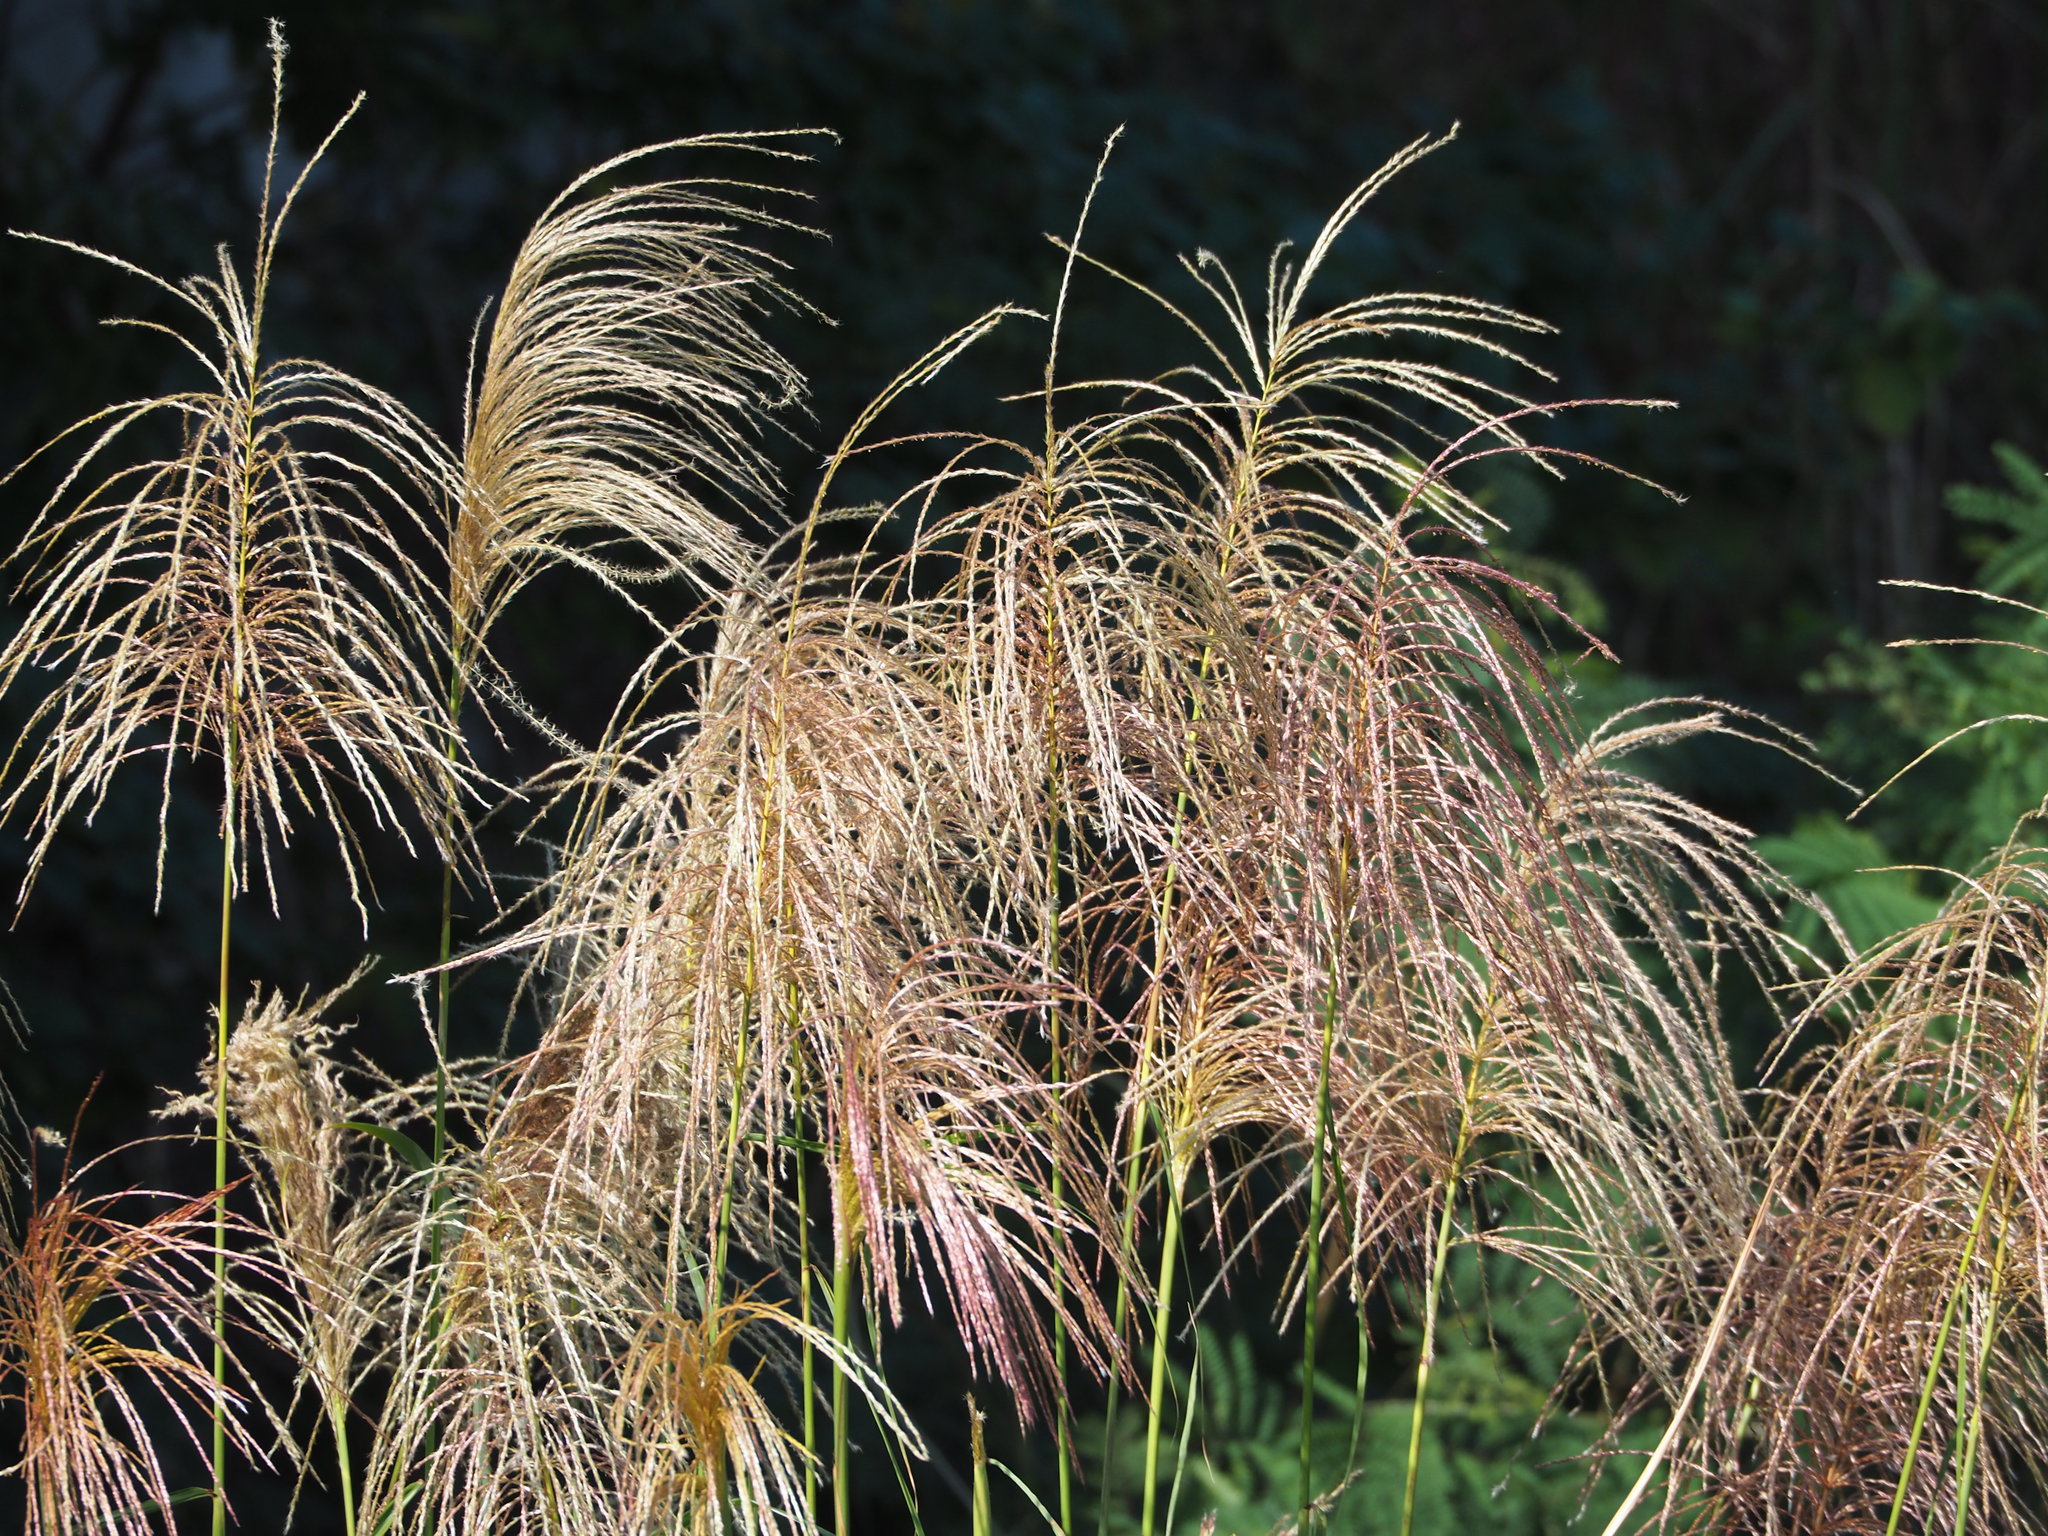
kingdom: Plantae
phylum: Tracheophyta
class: Liliopsida
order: Poales
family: Poaceae
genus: Miscanthus
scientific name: Miscanthus sinensis
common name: Chinese silvergrass
